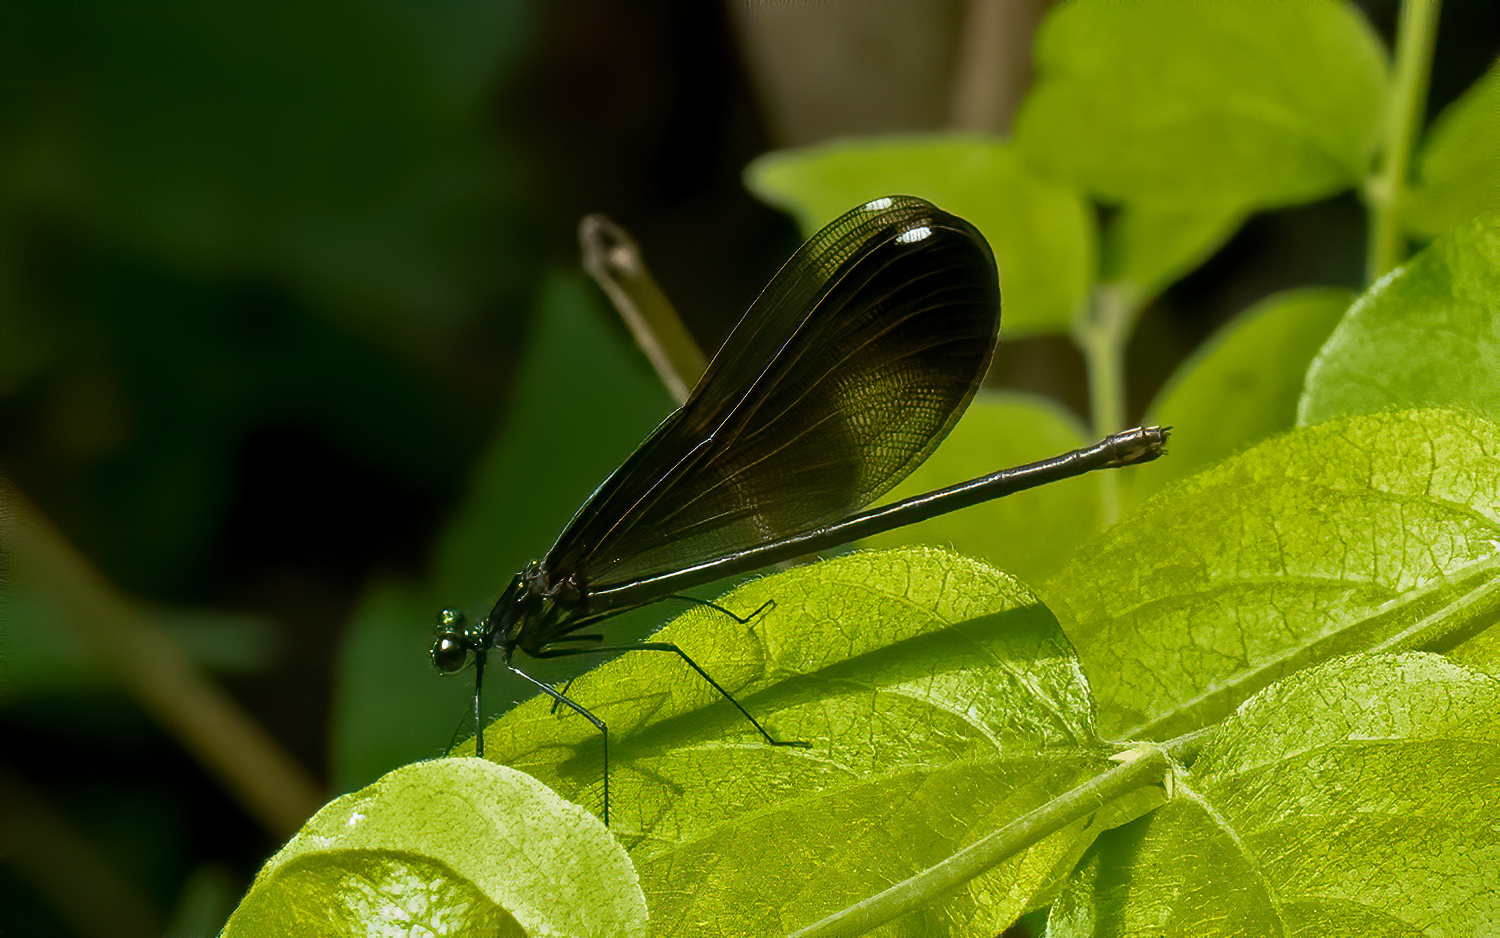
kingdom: Animalia
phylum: Arthropoda
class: Insecta
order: Odonata
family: Calopterygidae
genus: Calopteryx
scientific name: Calopteryx maculata
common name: Ebony jewelwing
